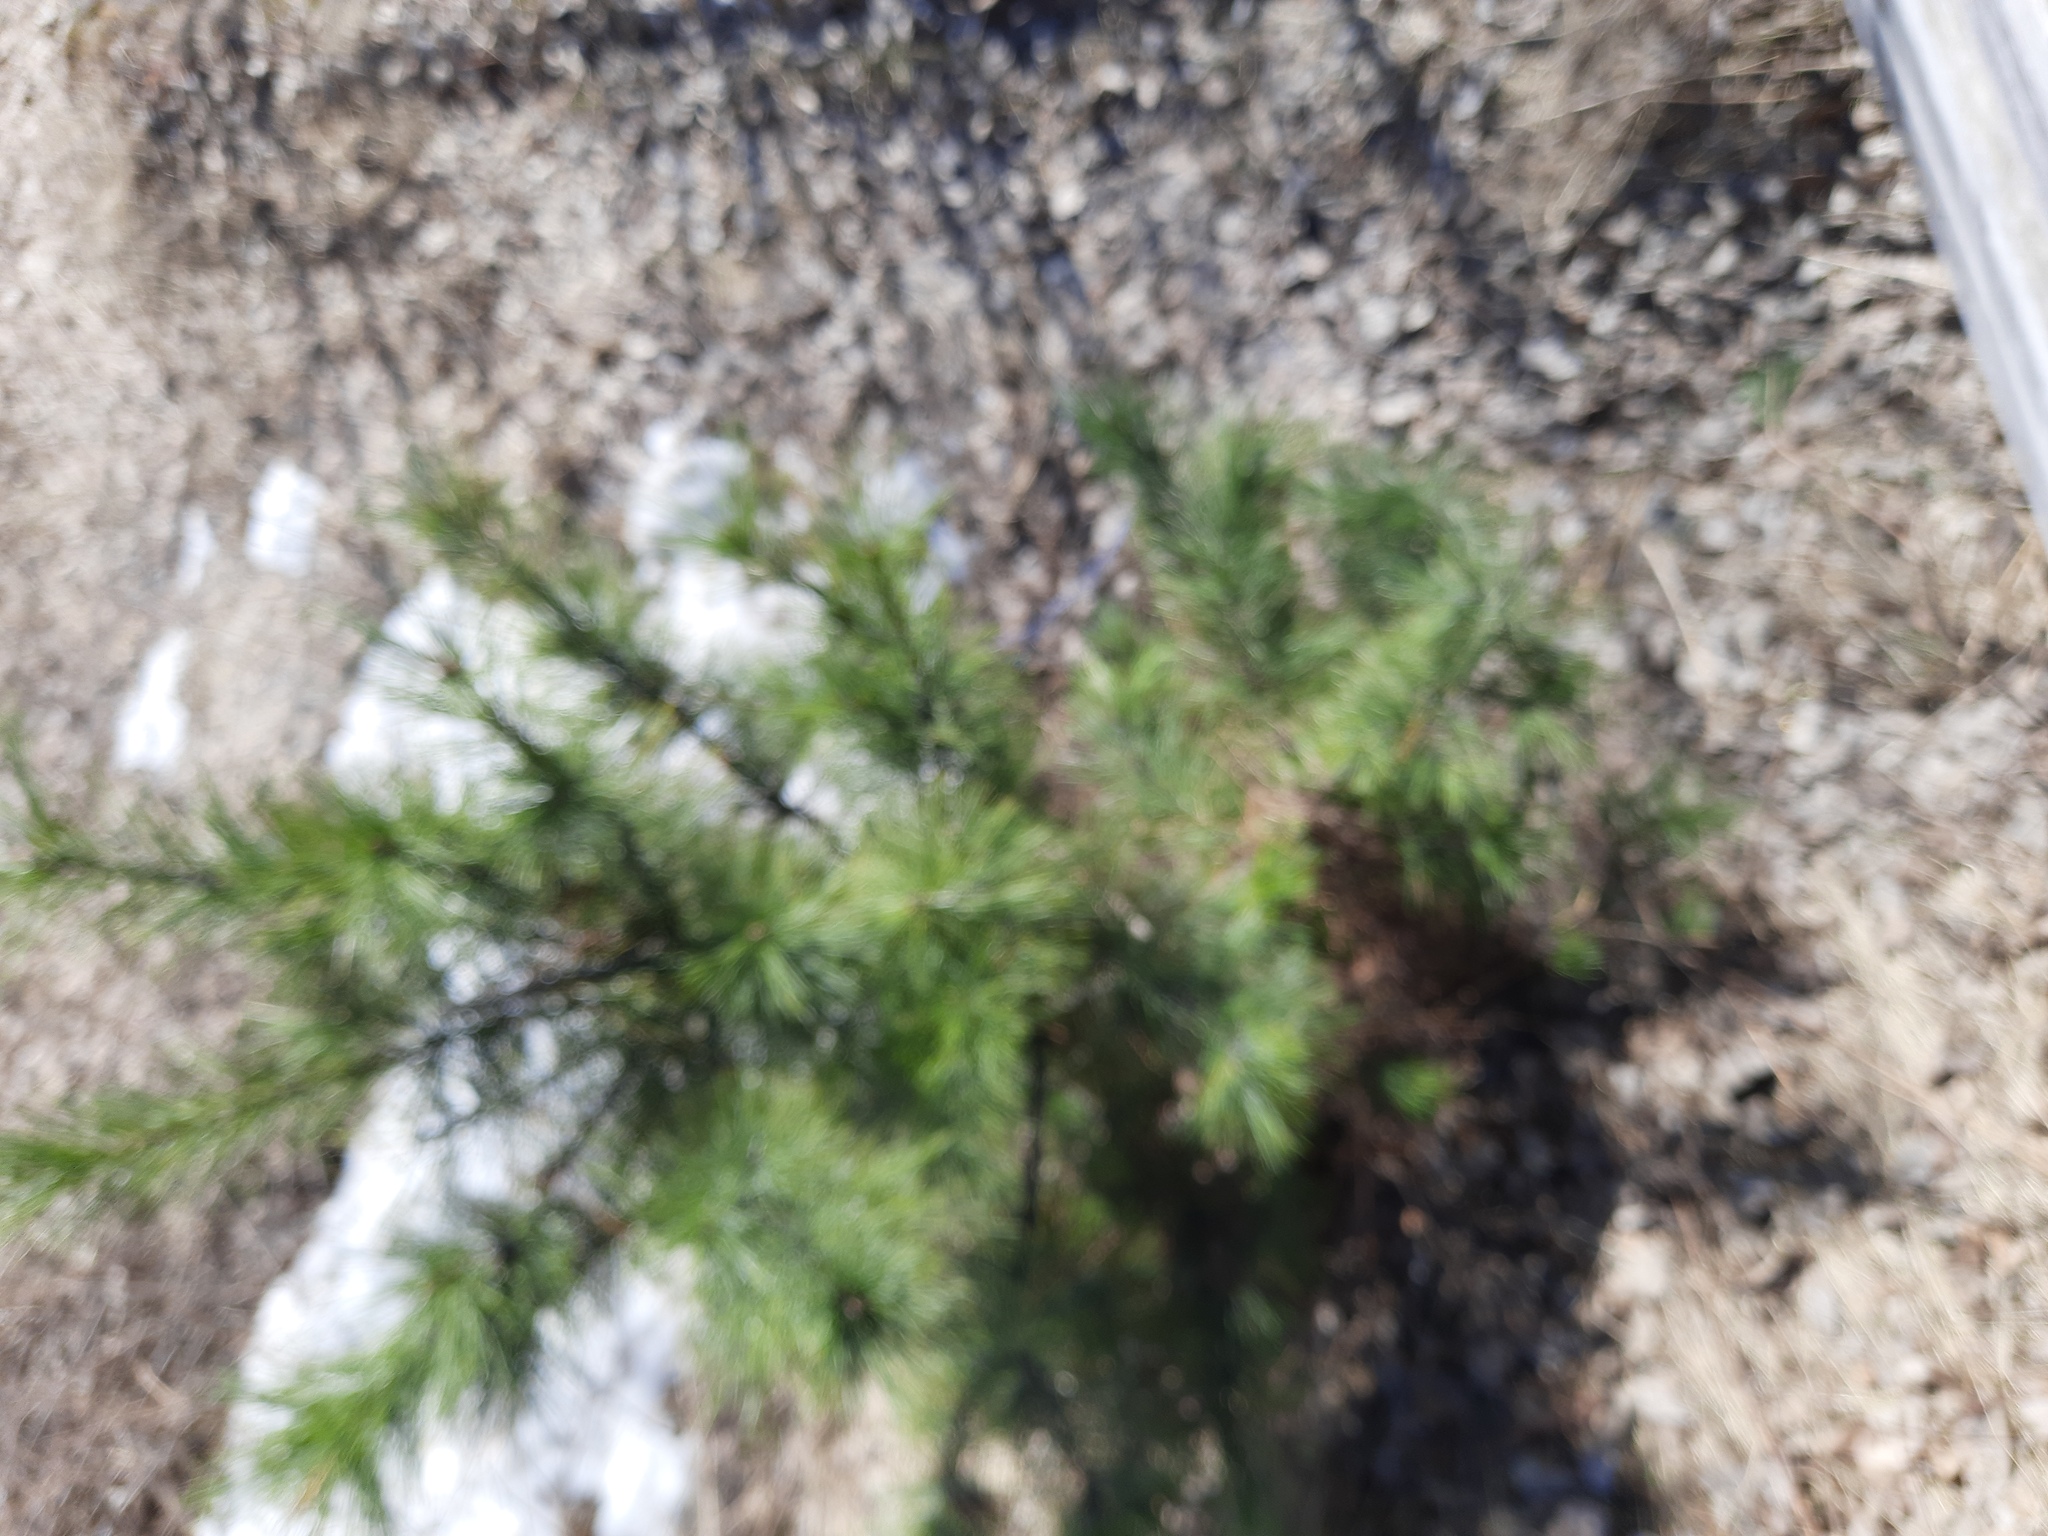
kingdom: Plantae
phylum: Tracheophyta
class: Pinopsida
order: Pinales
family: Pinaceae
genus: Pinus
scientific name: Pinus sibirica
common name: Siberian pine
